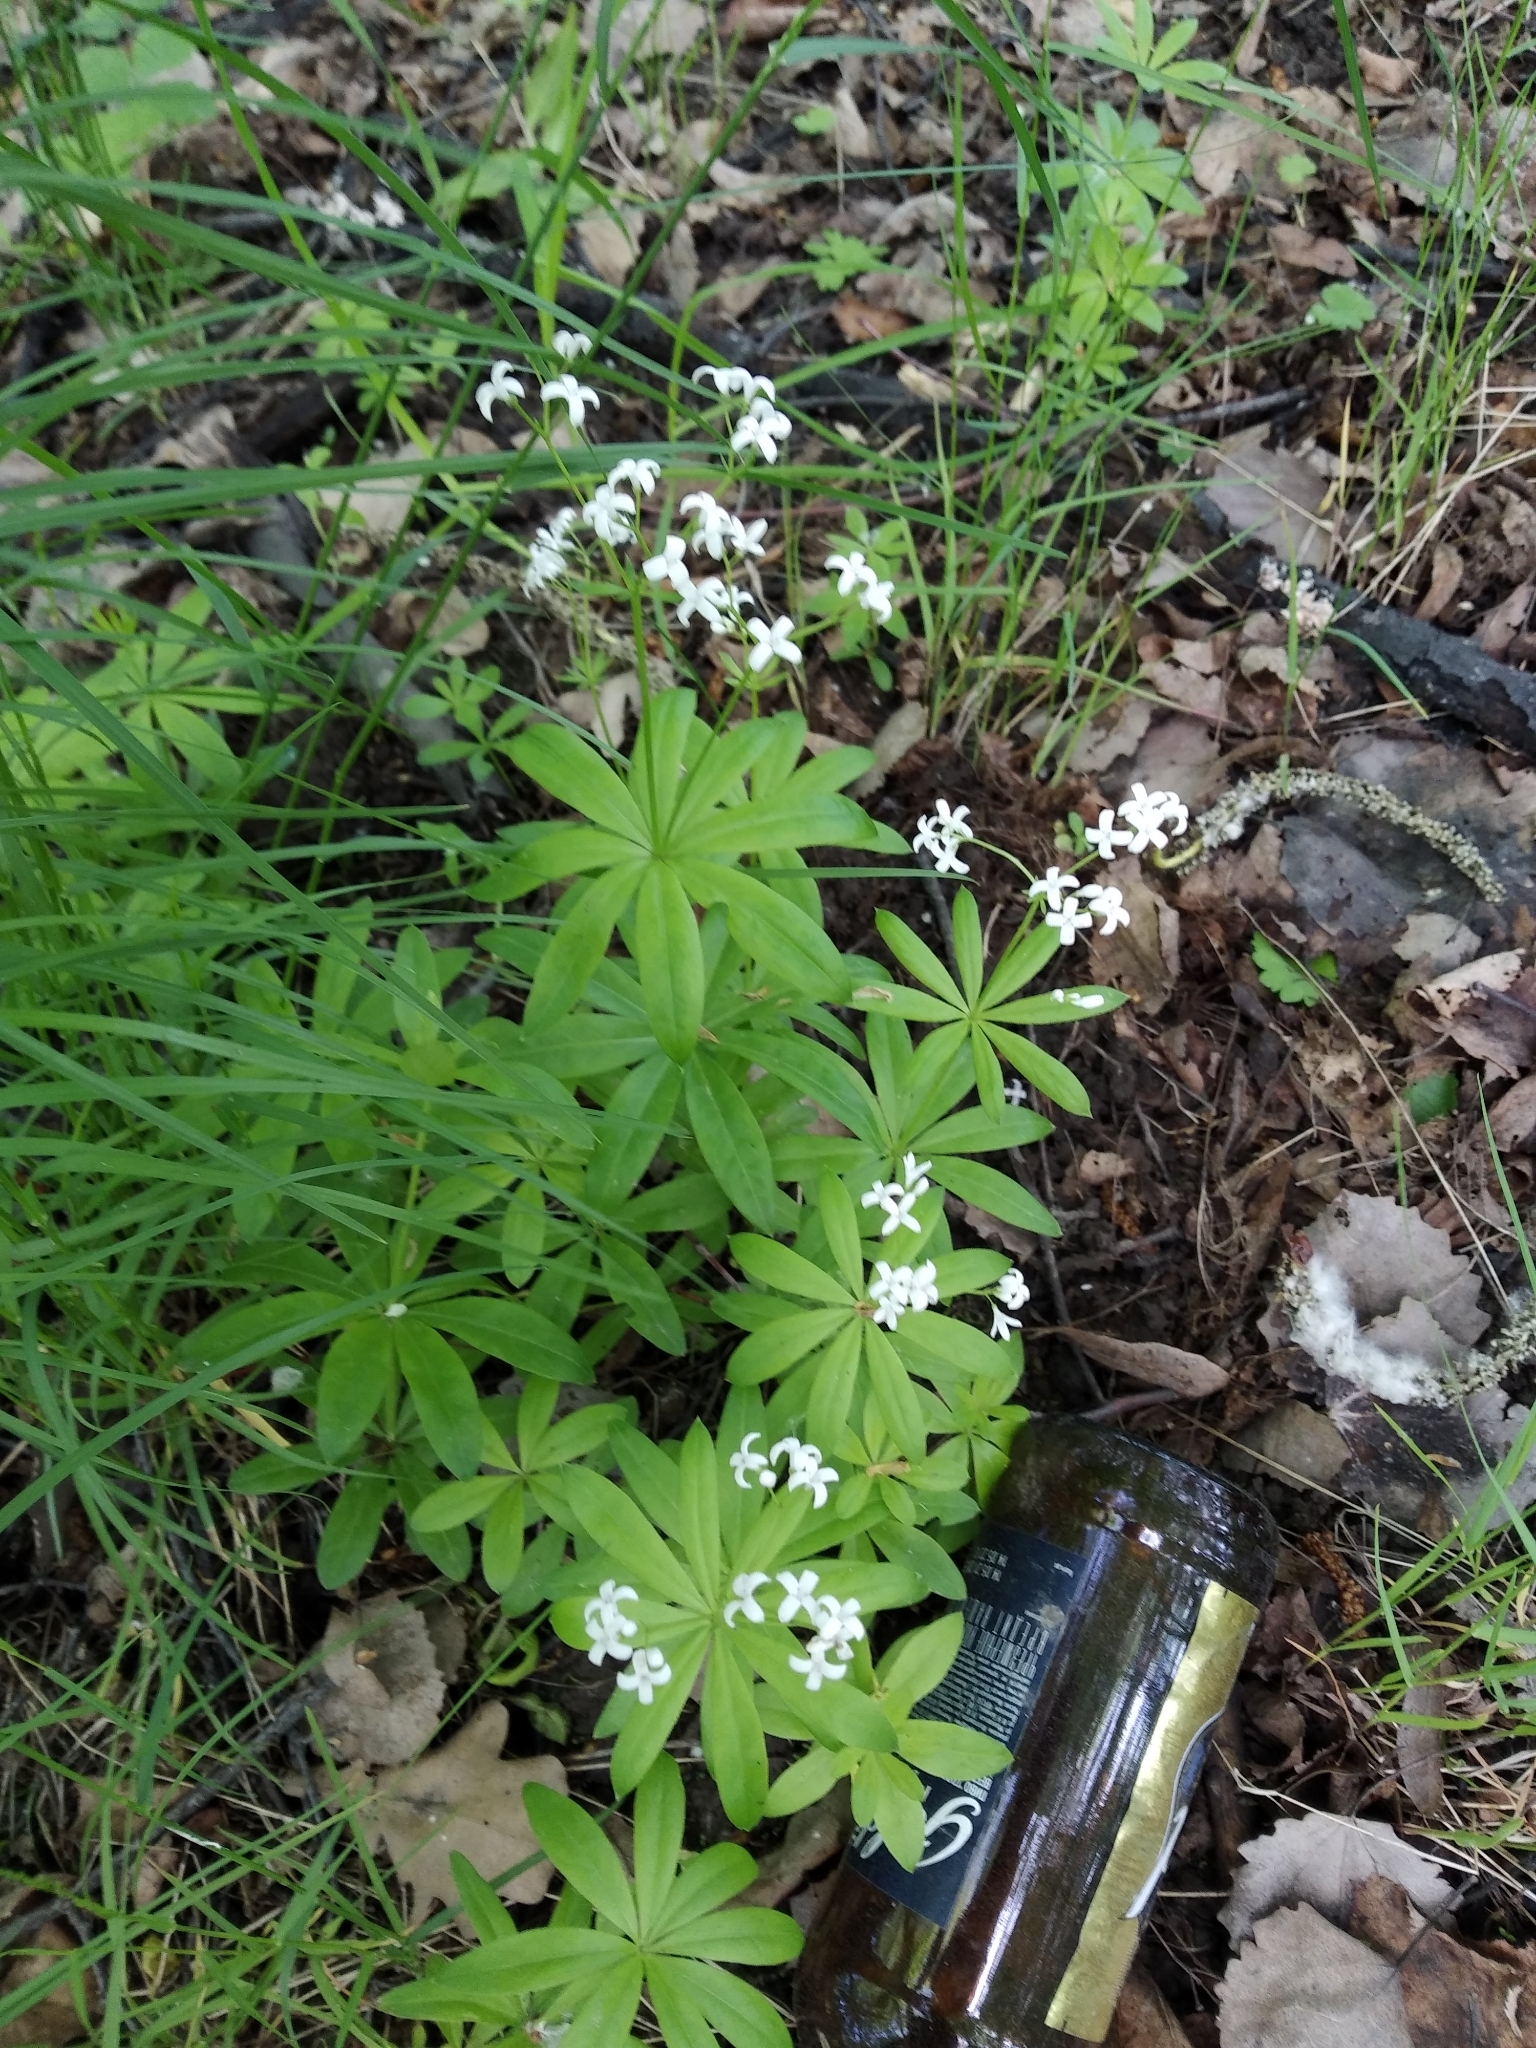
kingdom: Plantae
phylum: Tracheophyta
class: Magnoliopsida
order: Gentianales
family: Rubiaceae
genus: Galium
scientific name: Galium odoratum
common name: Sweet woodruff
